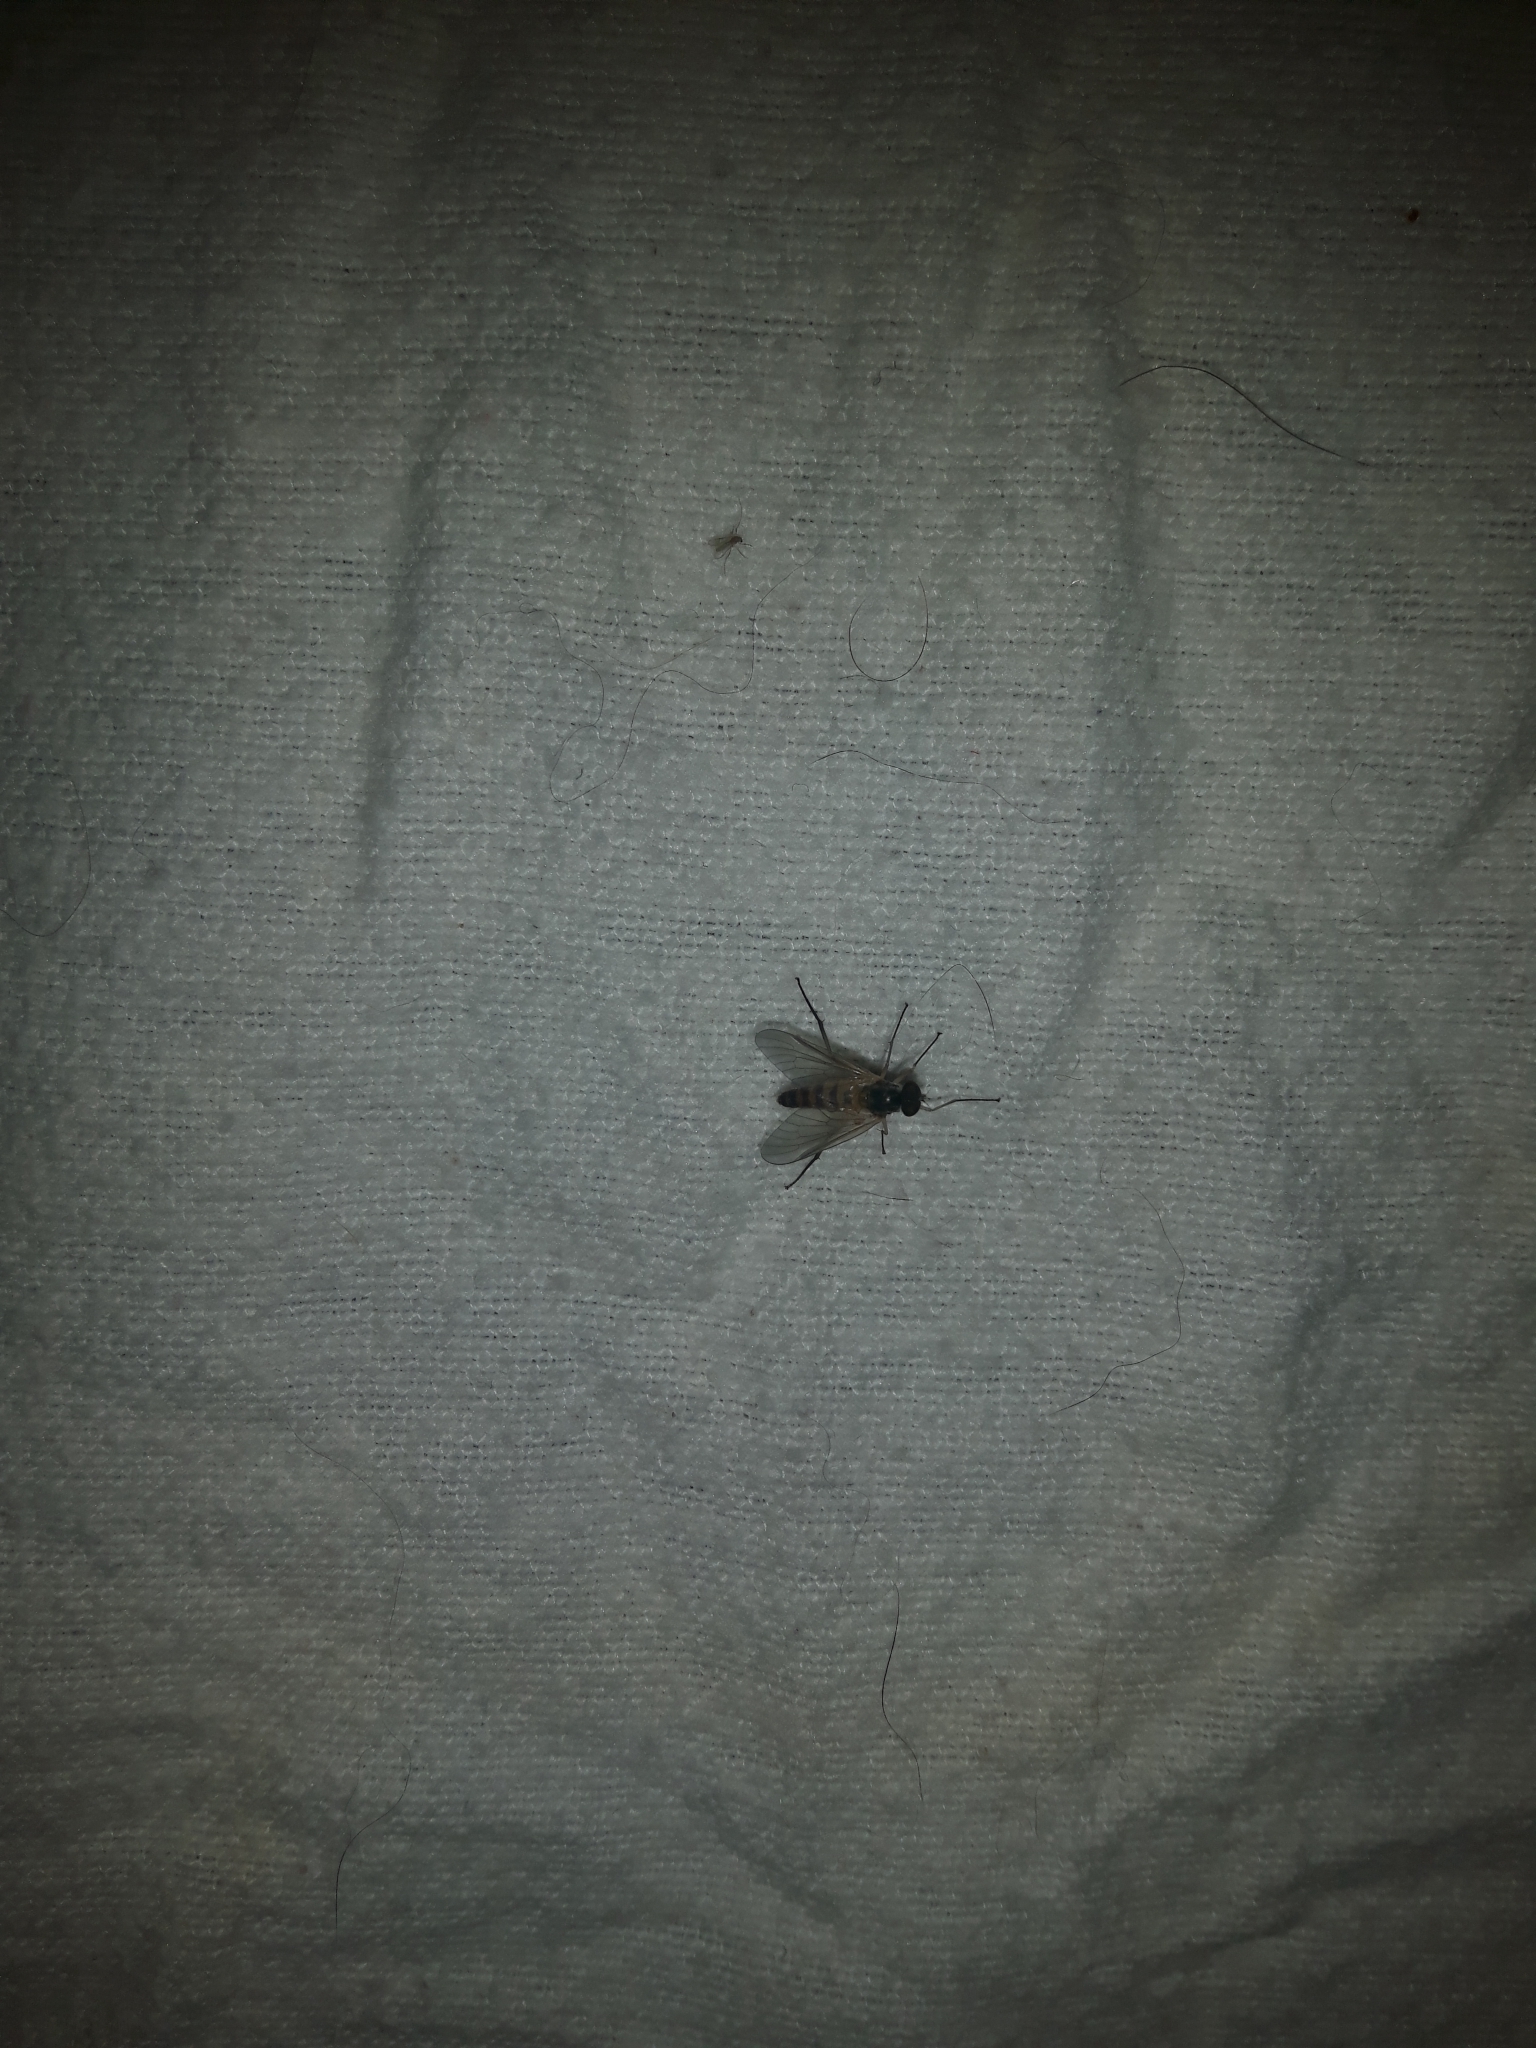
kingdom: Animalia
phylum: Arthropoda
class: Insecta
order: Diptera
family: Rhagionidae
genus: Rhagio
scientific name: Rhagio lineola
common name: Small fleck-winged snipefly
